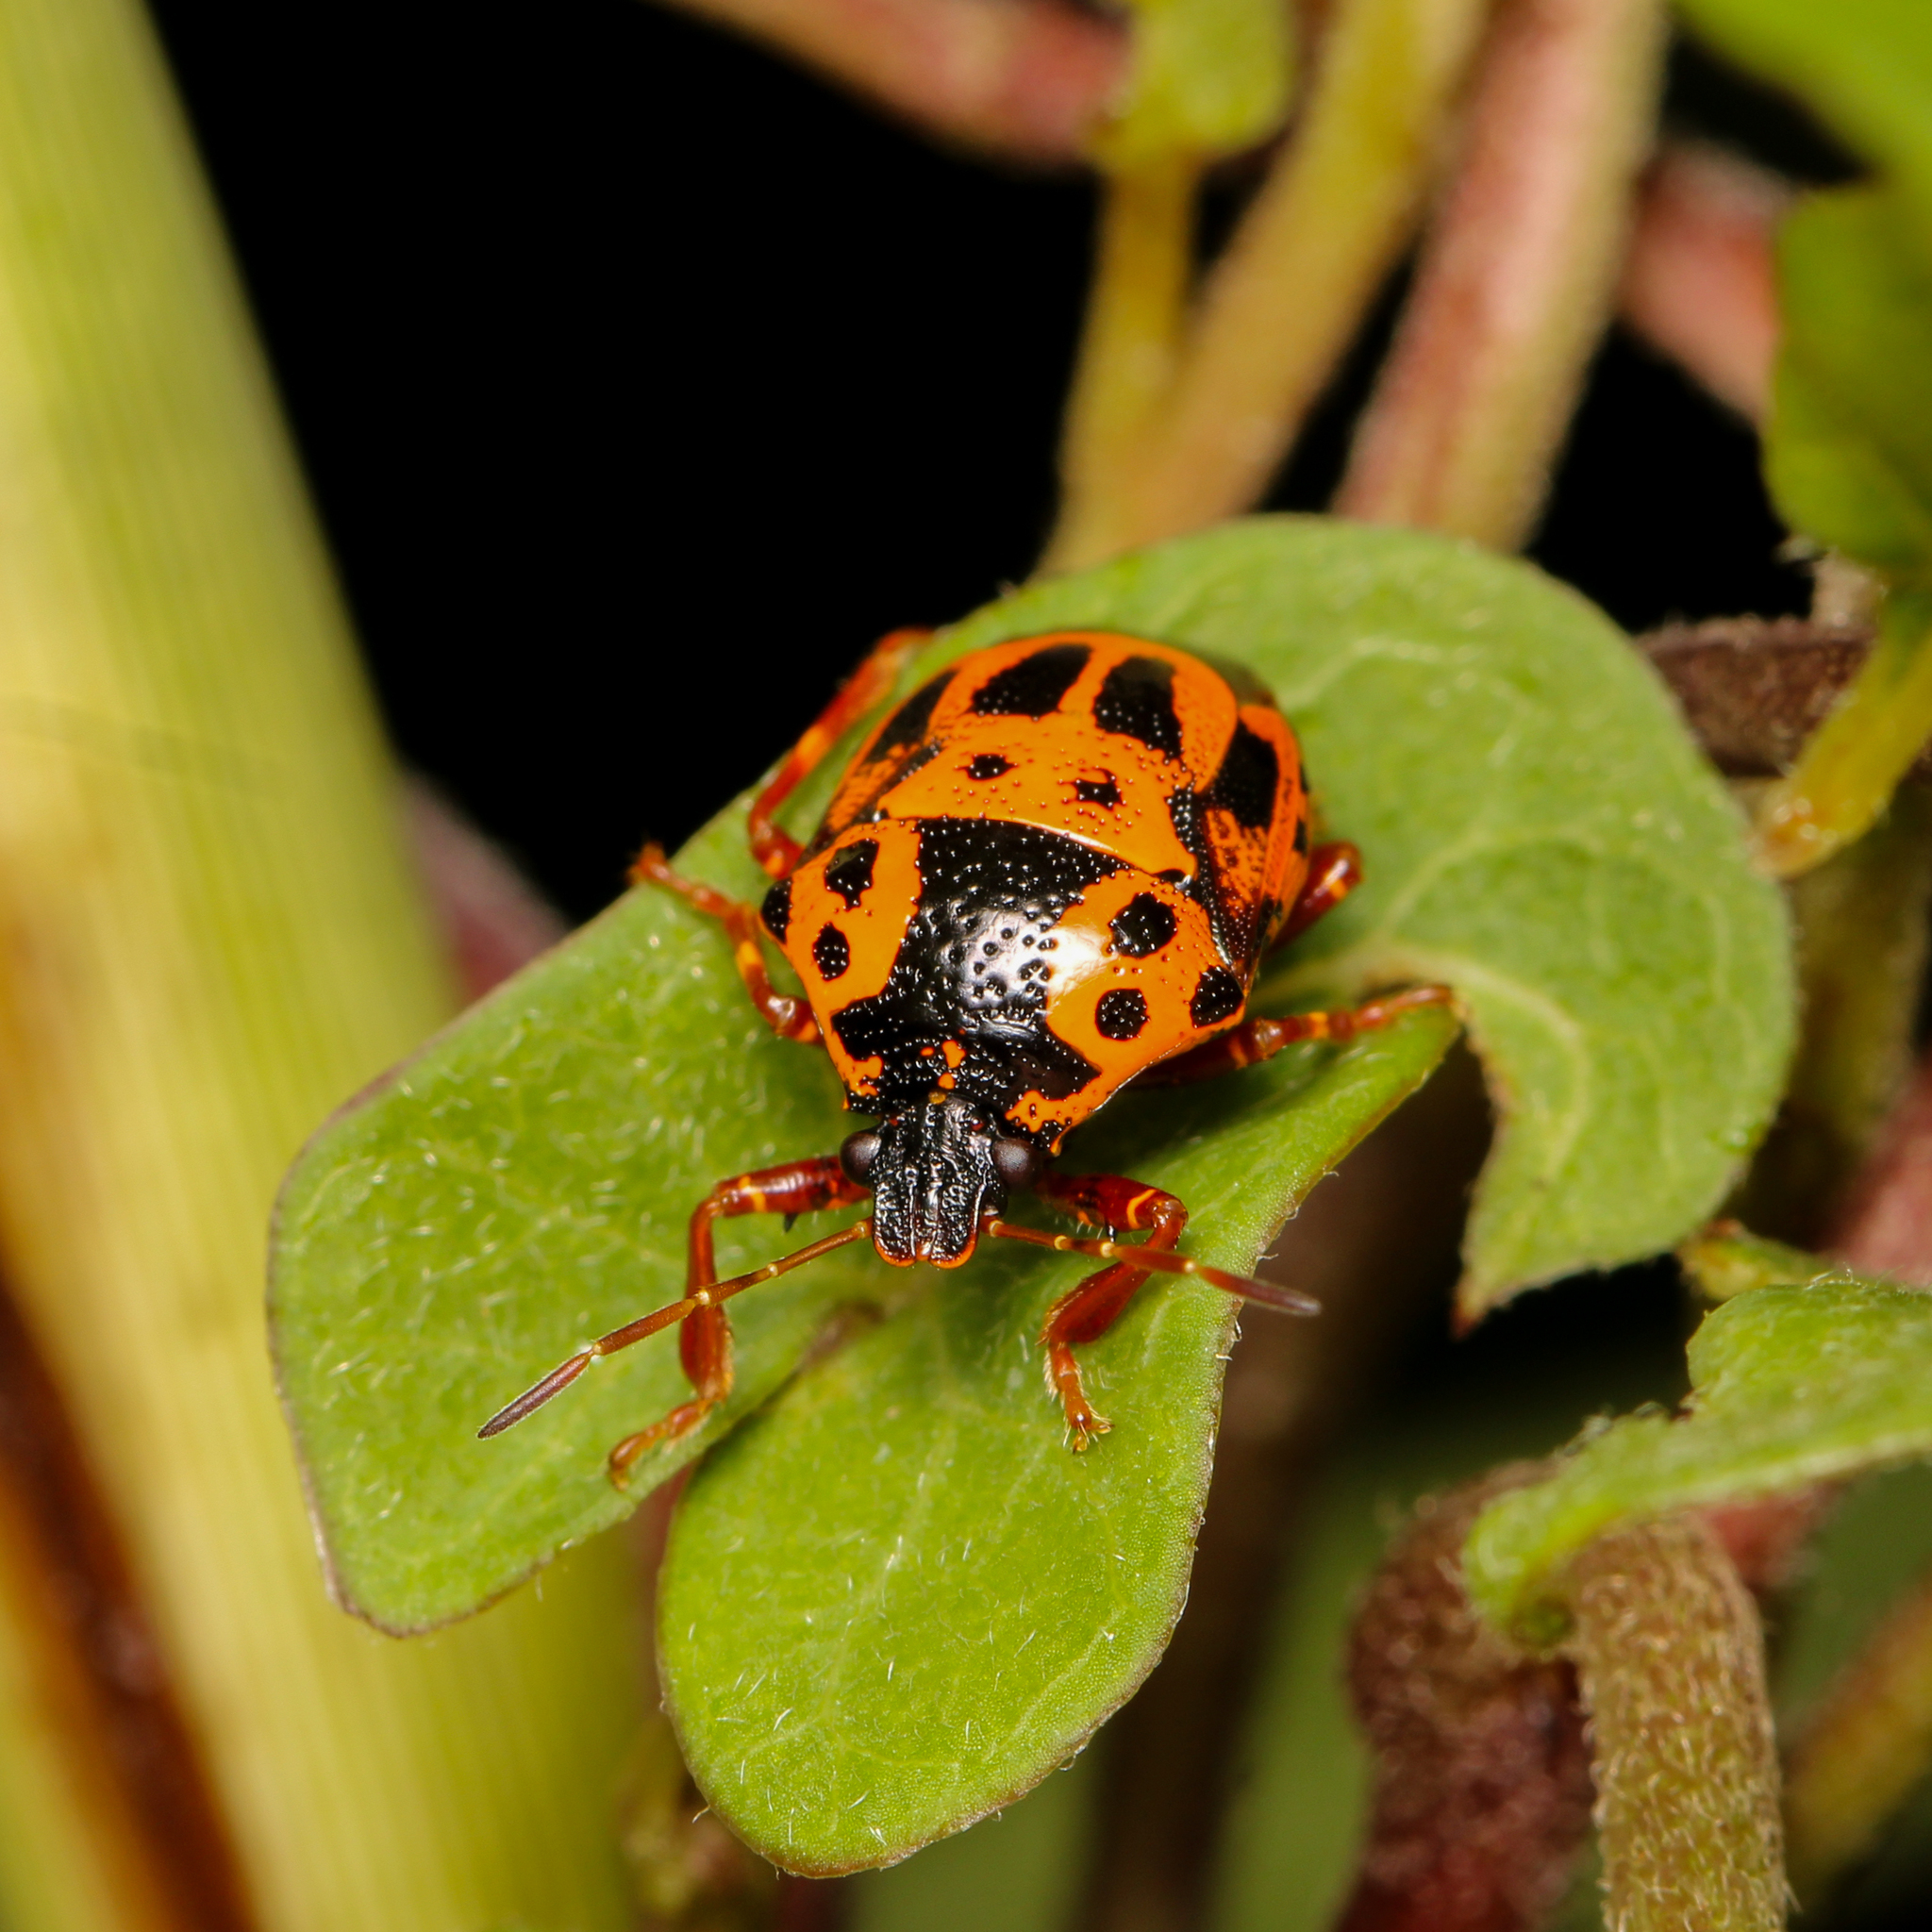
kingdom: Animalia
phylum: Arthropoda
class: Insecta
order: Hemiptera
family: Pentatomidae
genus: Stiretrus
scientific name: Stiretrus anchorago
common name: Anchor stink bug
